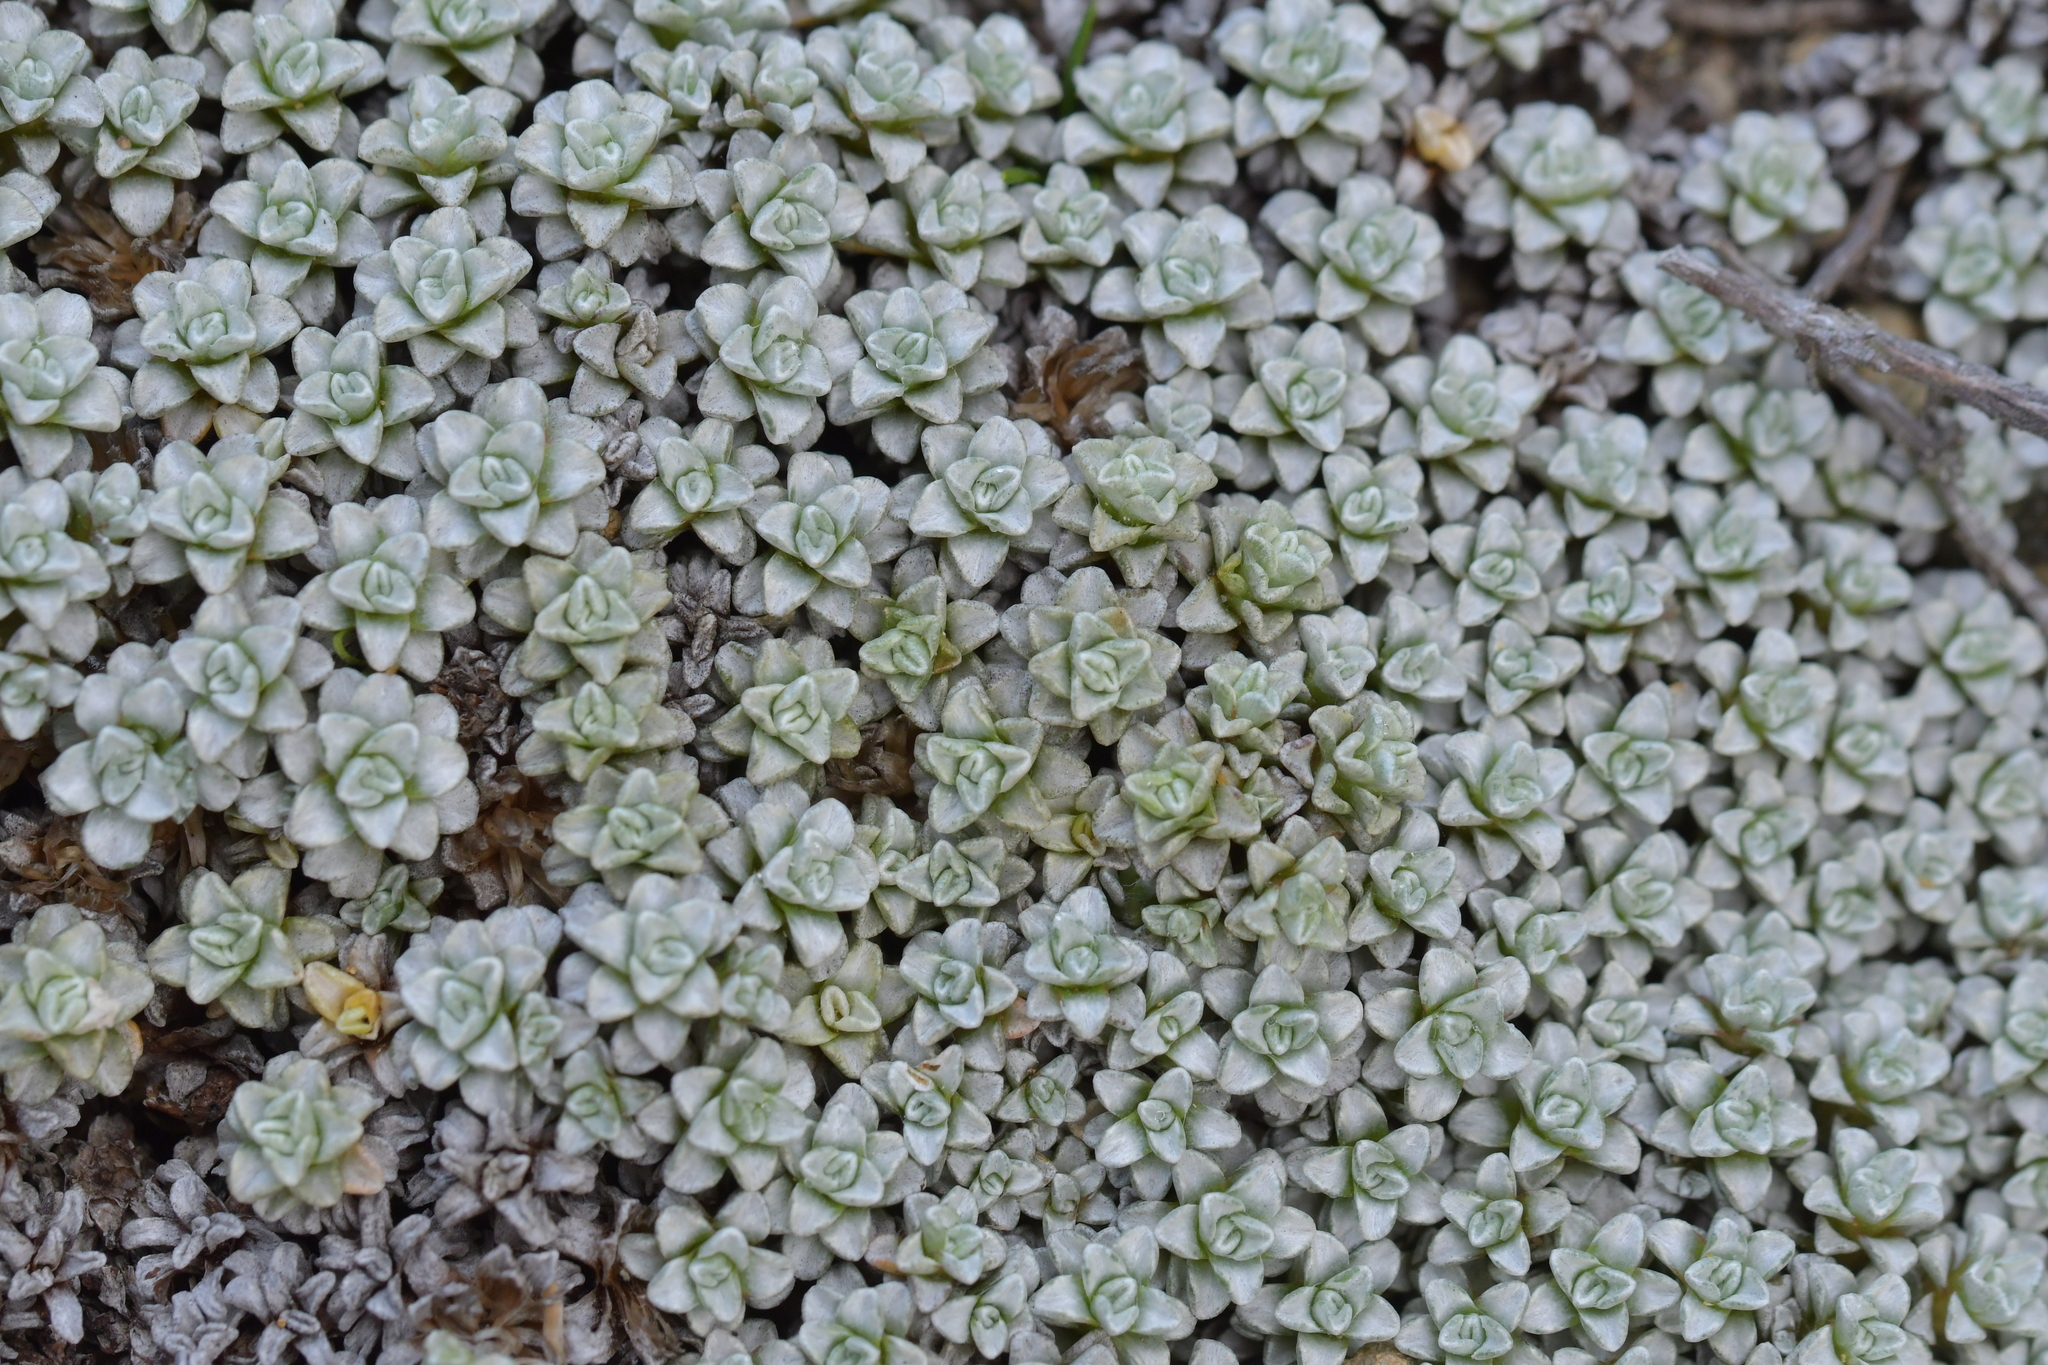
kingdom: Plantae
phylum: Tracheophyta
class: Magnoliopsida
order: Asterales
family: Asteraceae
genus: Raoulia
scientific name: Raoulia hookeri
